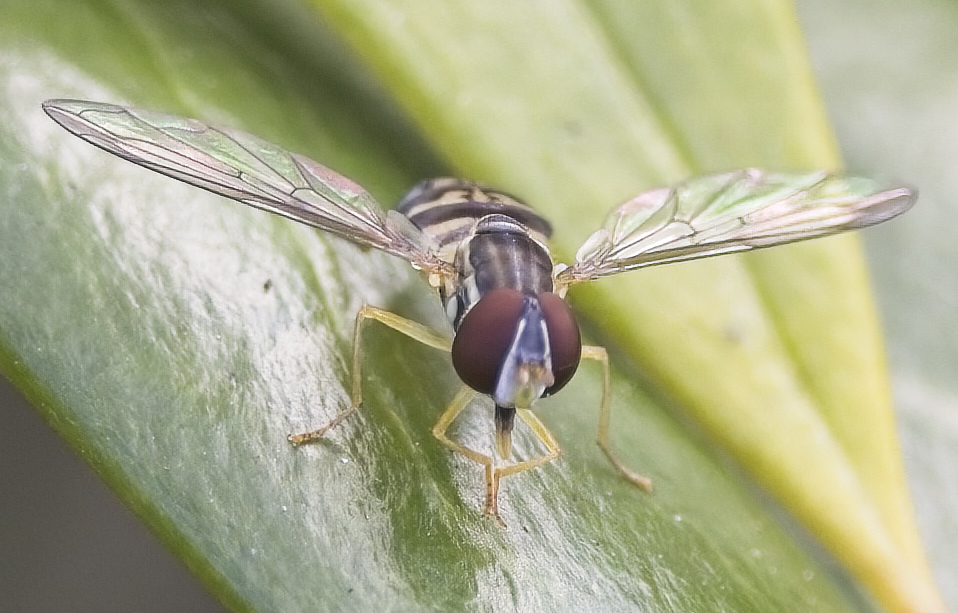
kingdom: Animalia
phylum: Arthropoda
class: Insecta
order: Diptera
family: Syrphidae
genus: Toxomerus
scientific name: Toxomerus geminatus
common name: Eastern calligrapher
